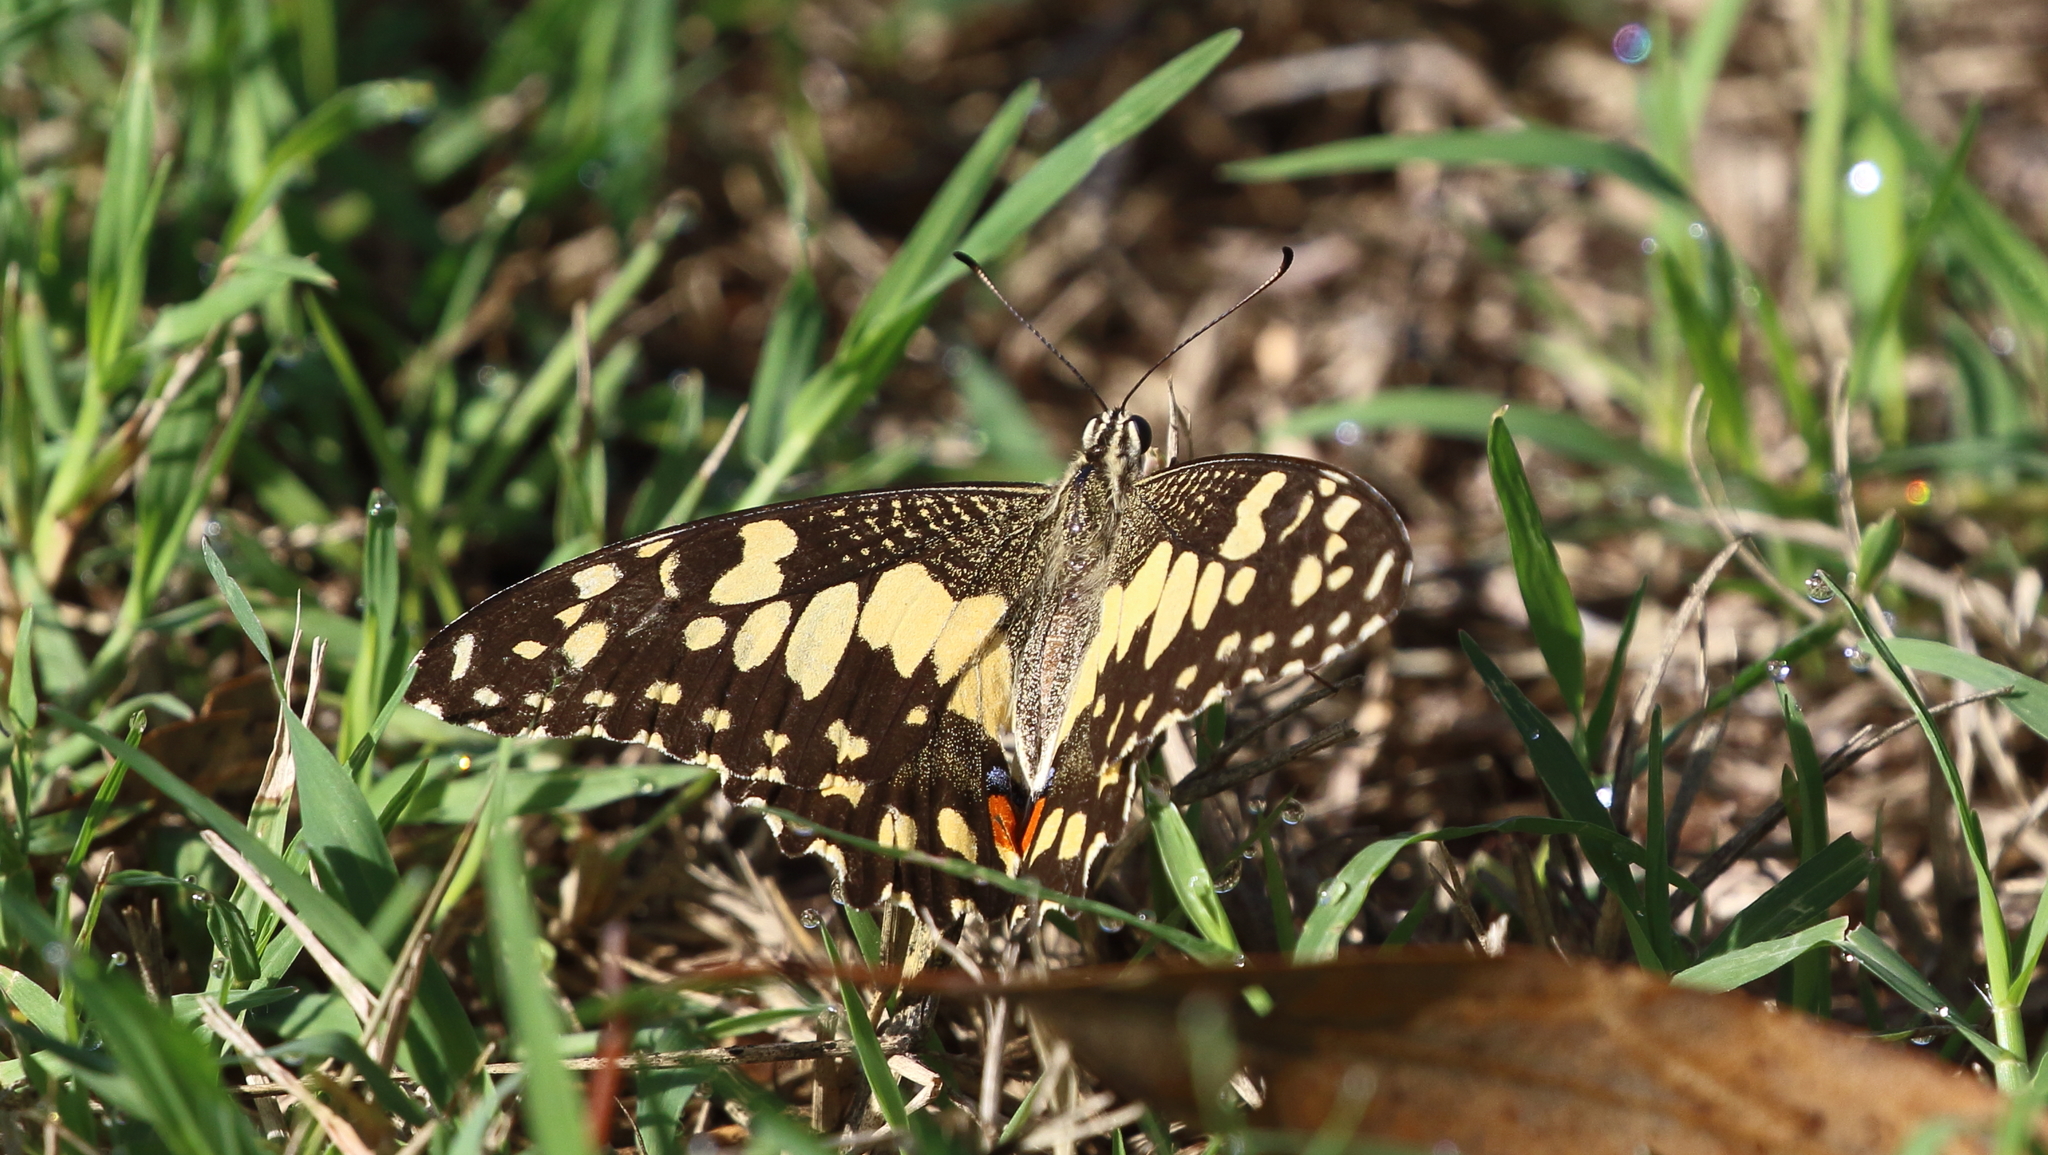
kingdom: Animalia
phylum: Arthropoda
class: Insecta
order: Lepidoptera
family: Papilionidae
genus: Papilio
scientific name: Papilio demoleus
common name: Lime butterfly
